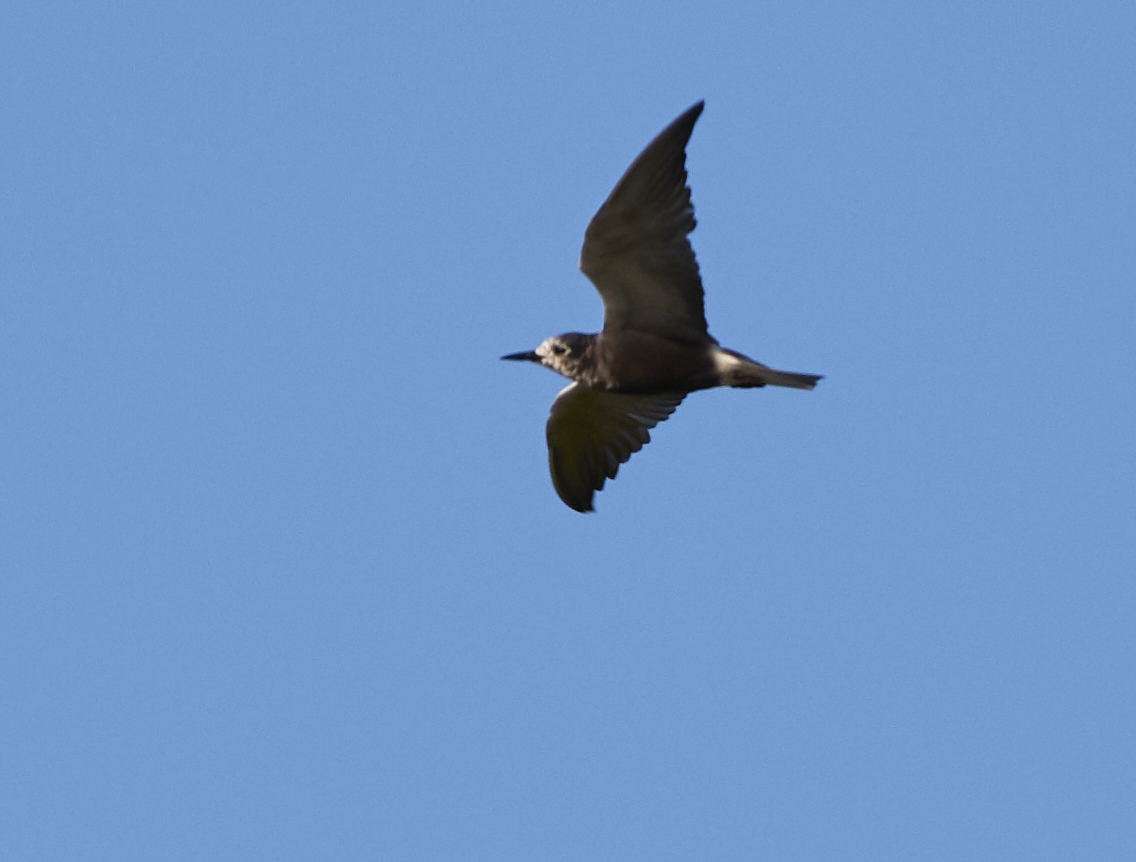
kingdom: Animalia
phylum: Chordata
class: Aves
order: Charadriiformes
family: Laridae
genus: Chlidonias
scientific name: Chlidonias niger
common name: Black tern
